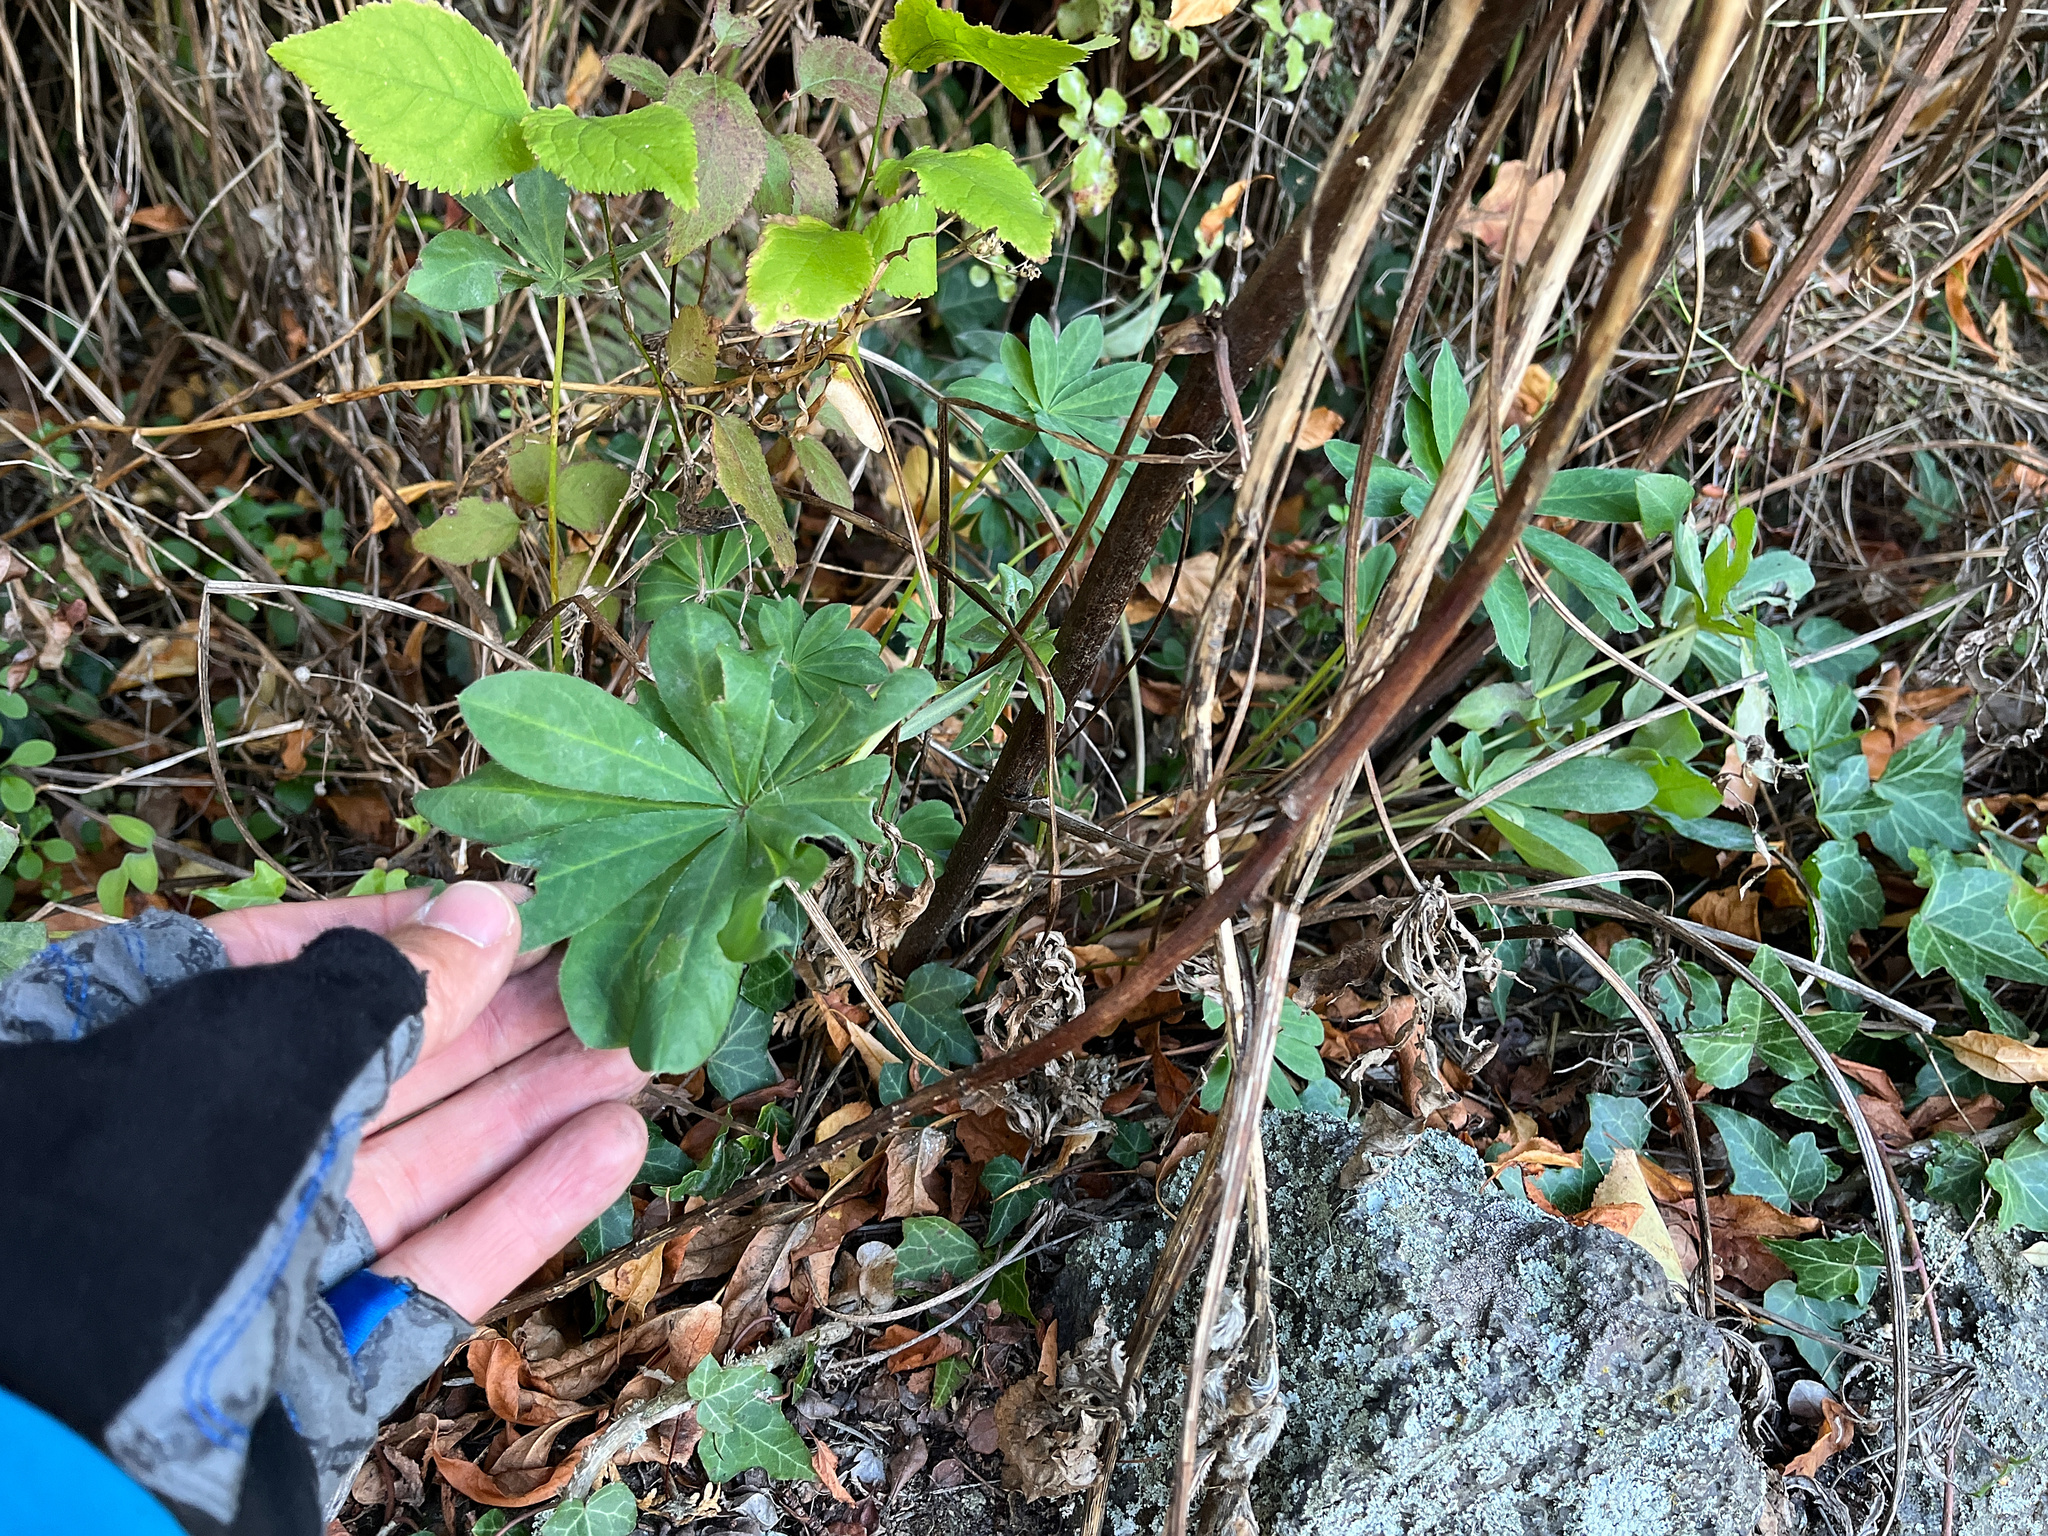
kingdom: Plantae
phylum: Tracheophyta
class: Magnoliopsida
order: Fabales
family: Fabaceae
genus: Lupinus
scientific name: Lupinus polyphyllus
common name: Garden lupin
